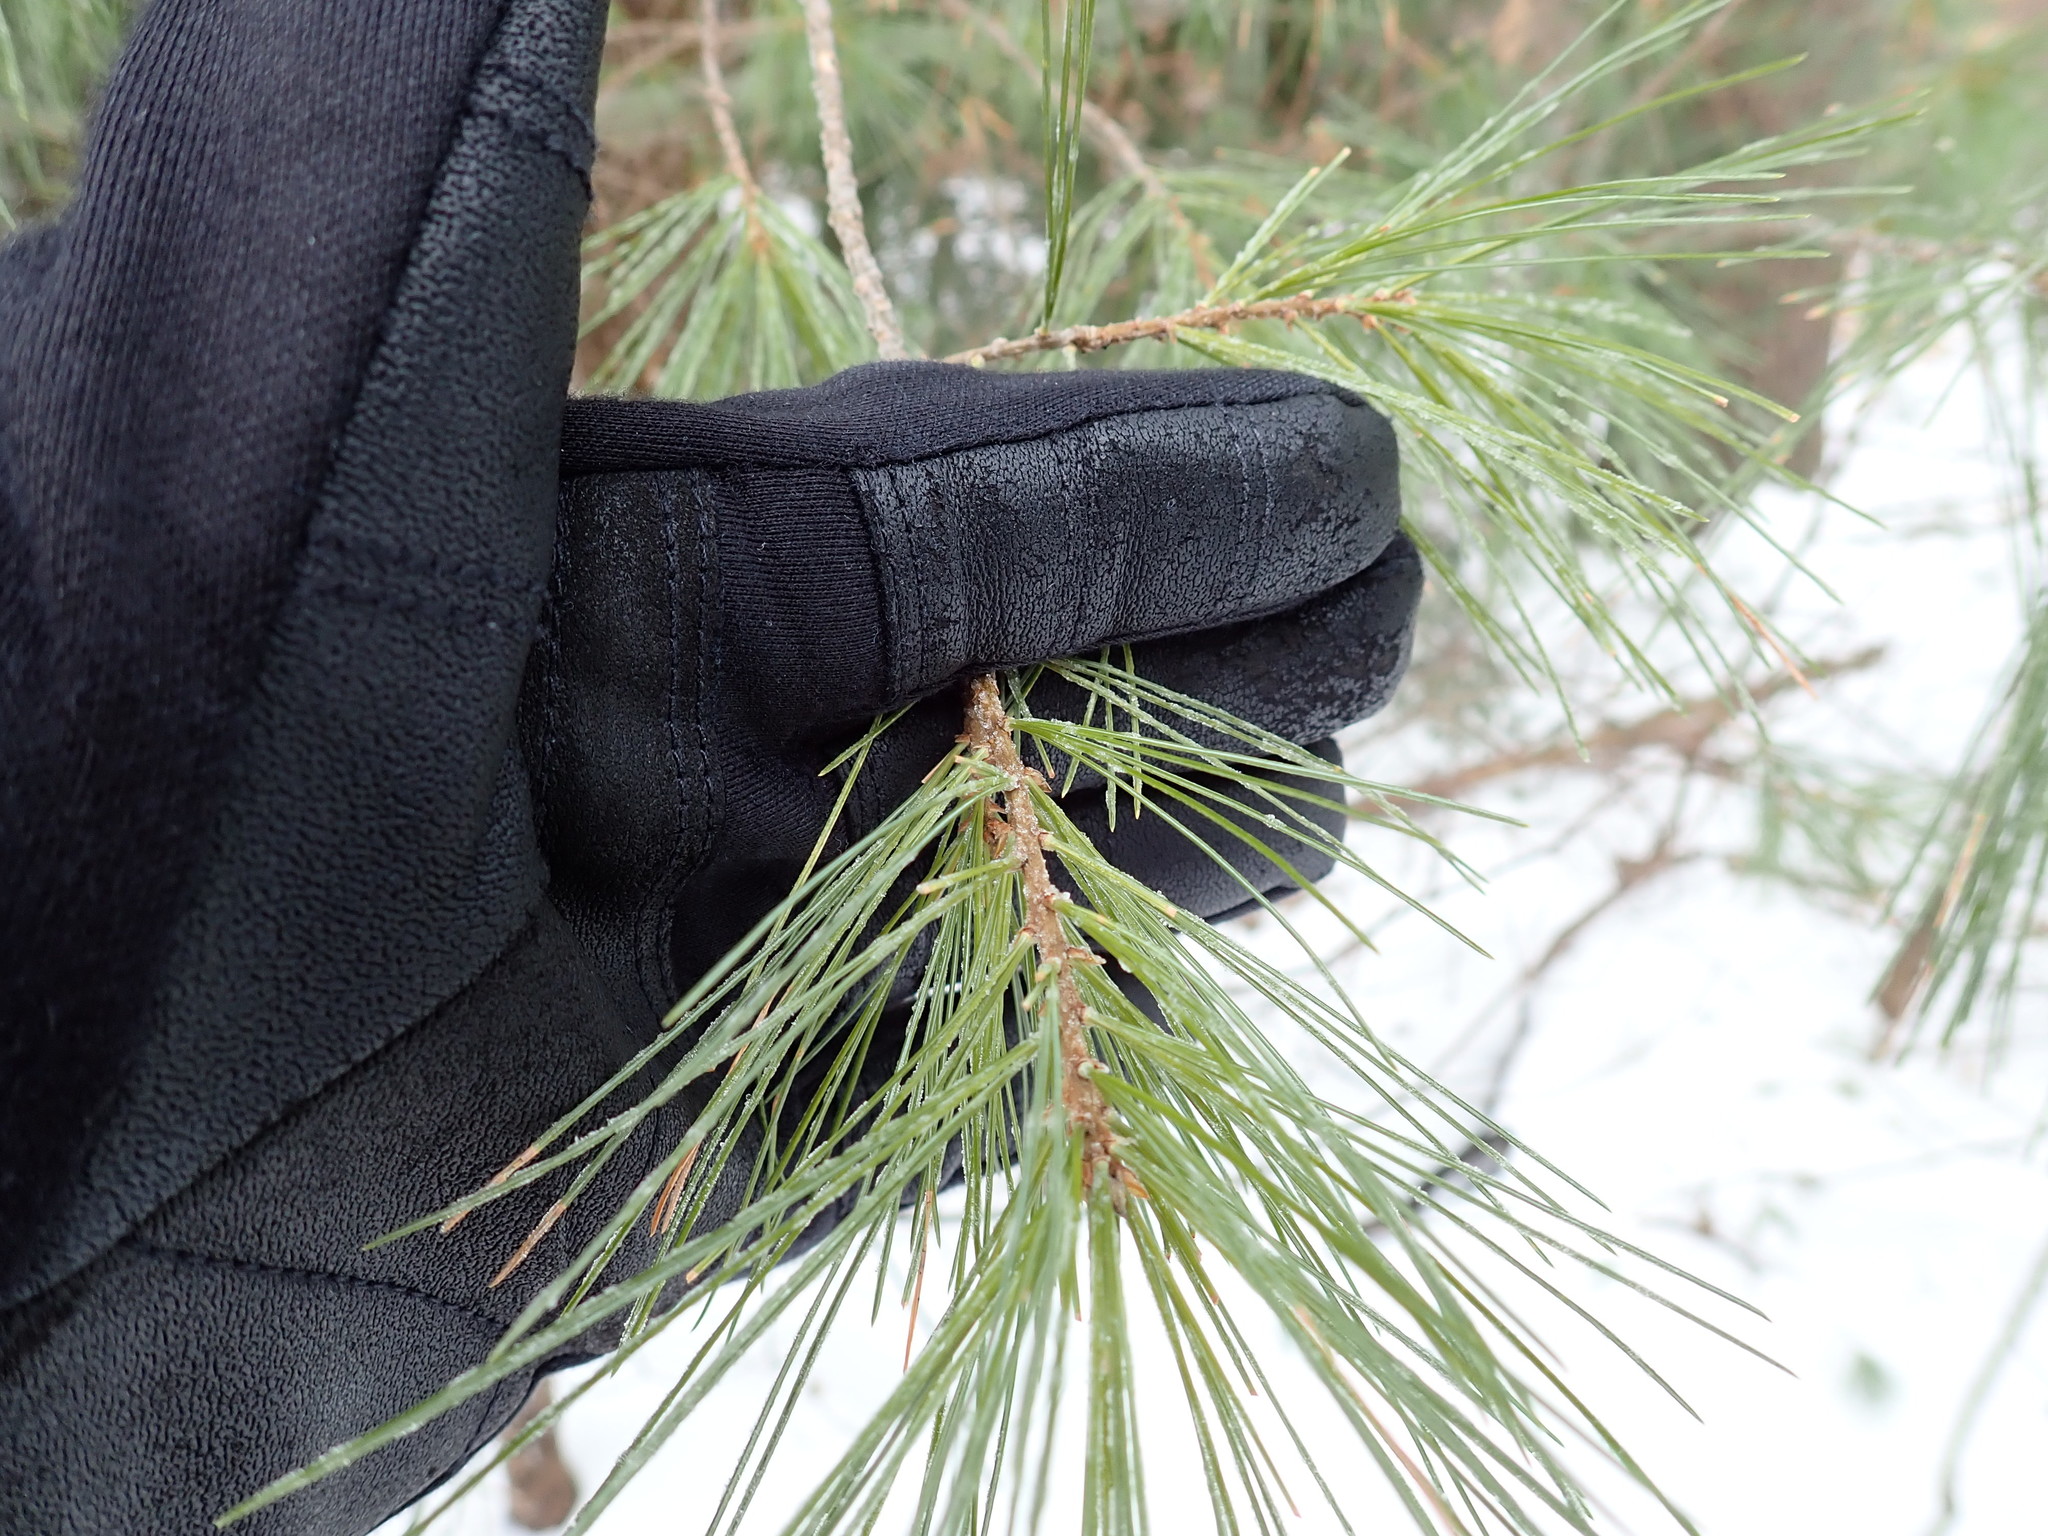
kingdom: Plantae
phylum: Tracheophyta
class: Pinopsida
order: Pinales
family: Pinaceae
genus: Pinus
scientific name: Pinus strobus
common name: Weymouth pine
